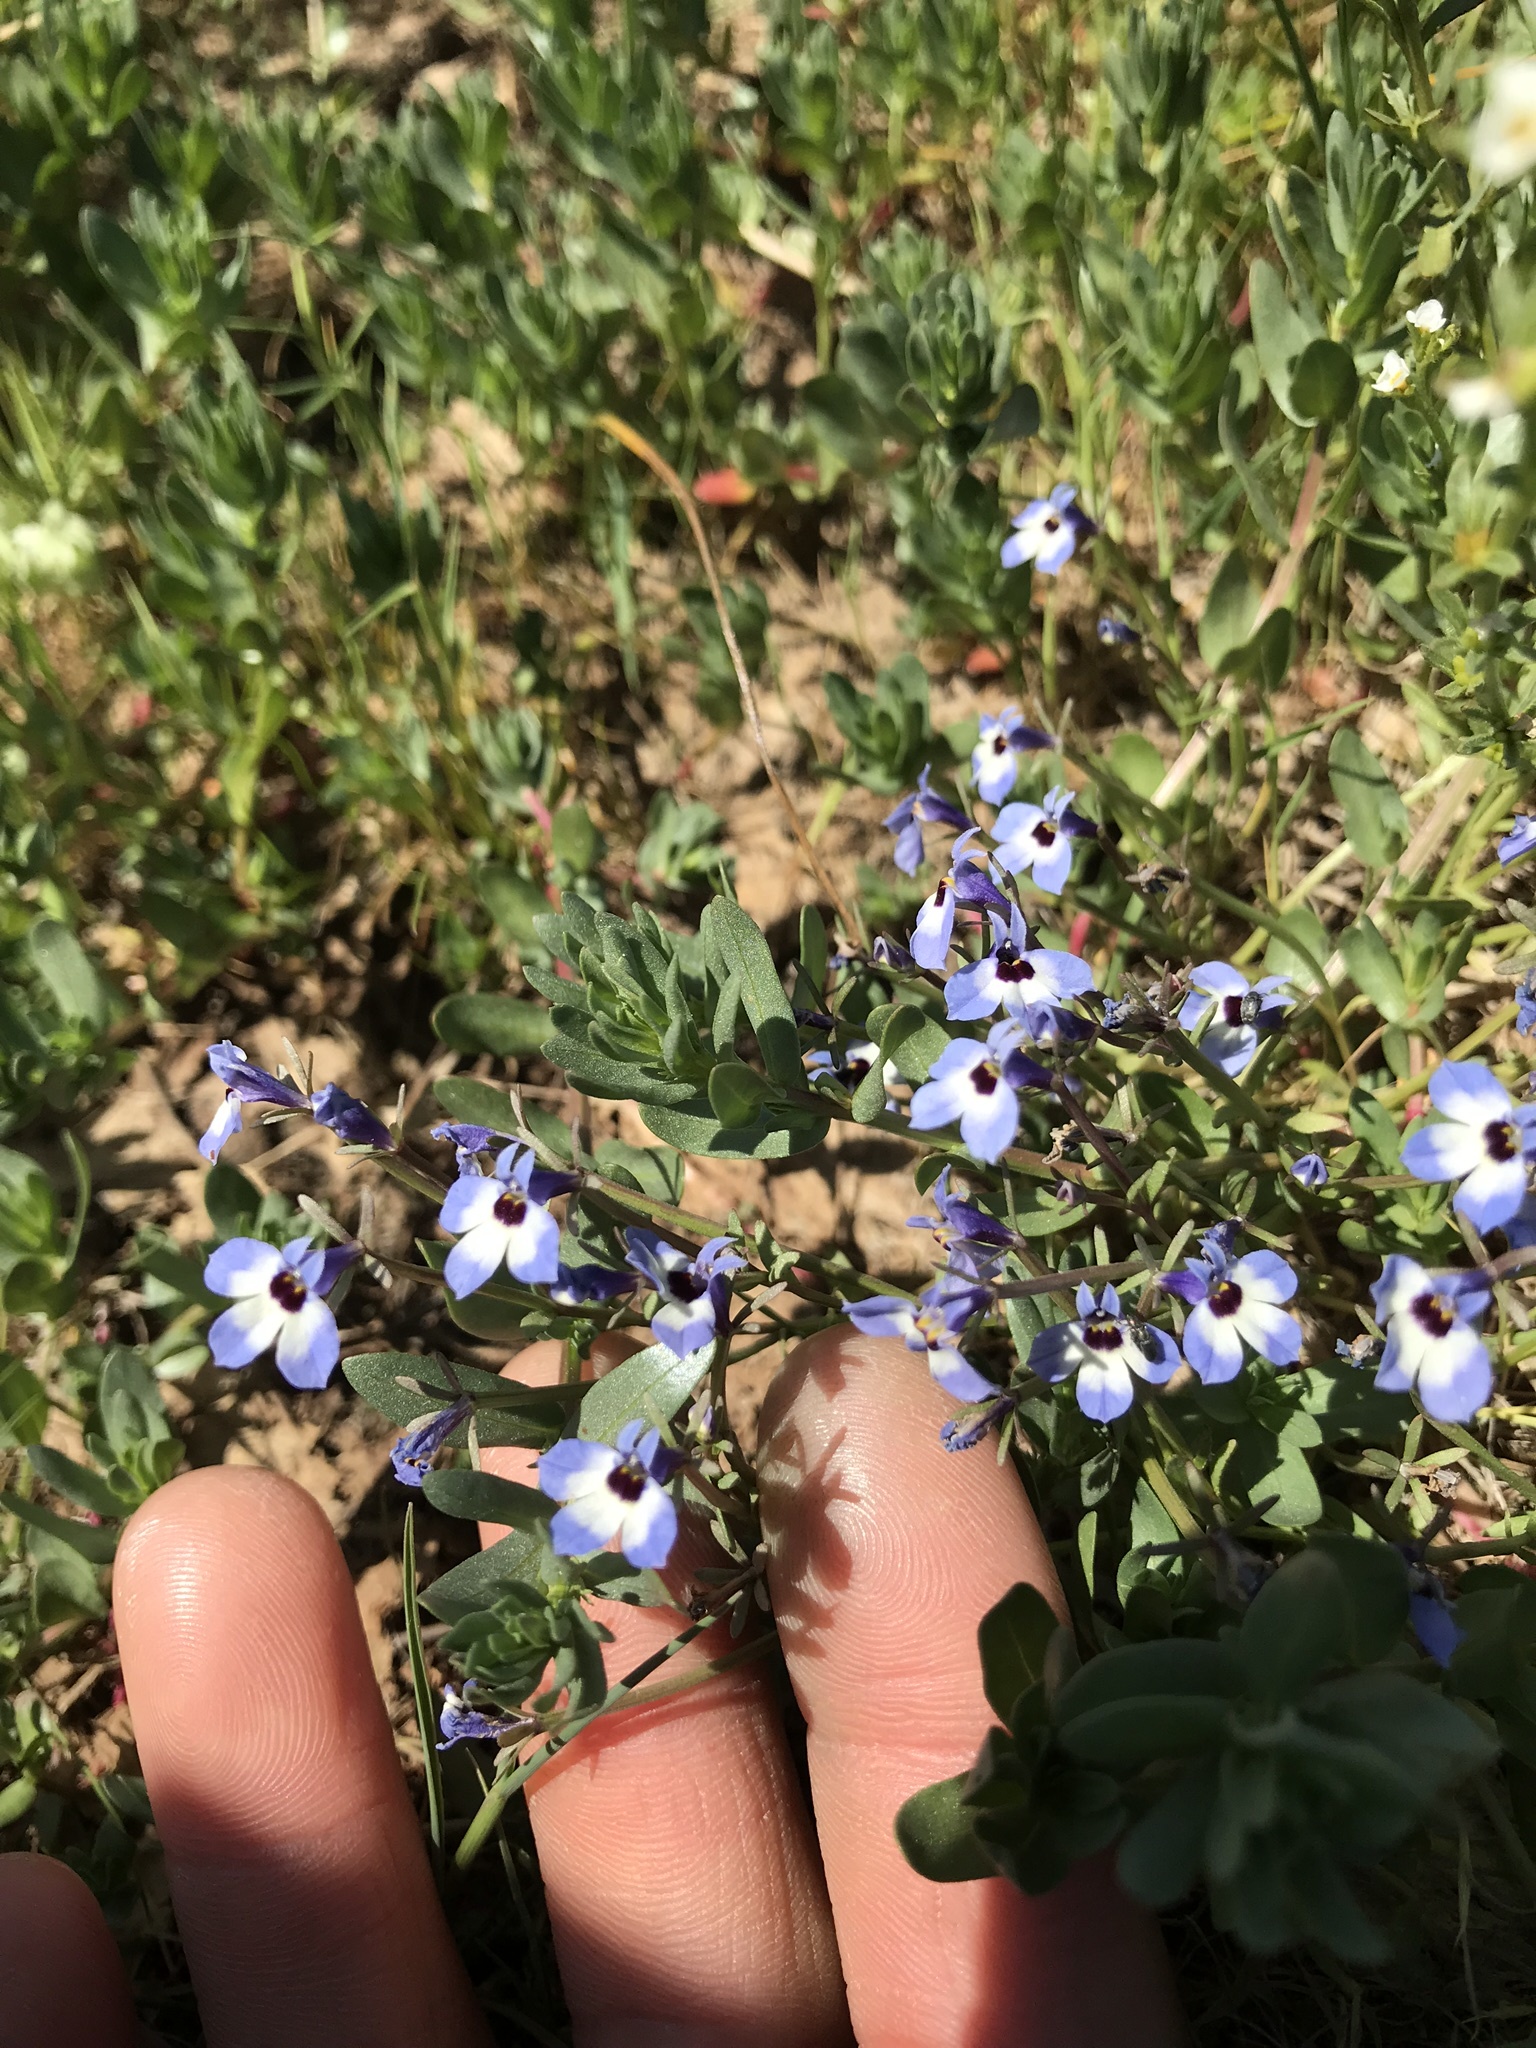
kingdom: Plantae
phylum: Tracheophyta
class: Magnoliopsida
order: Asterales
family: Campanulaceae
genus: Downingia
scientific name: Downingia concolor
